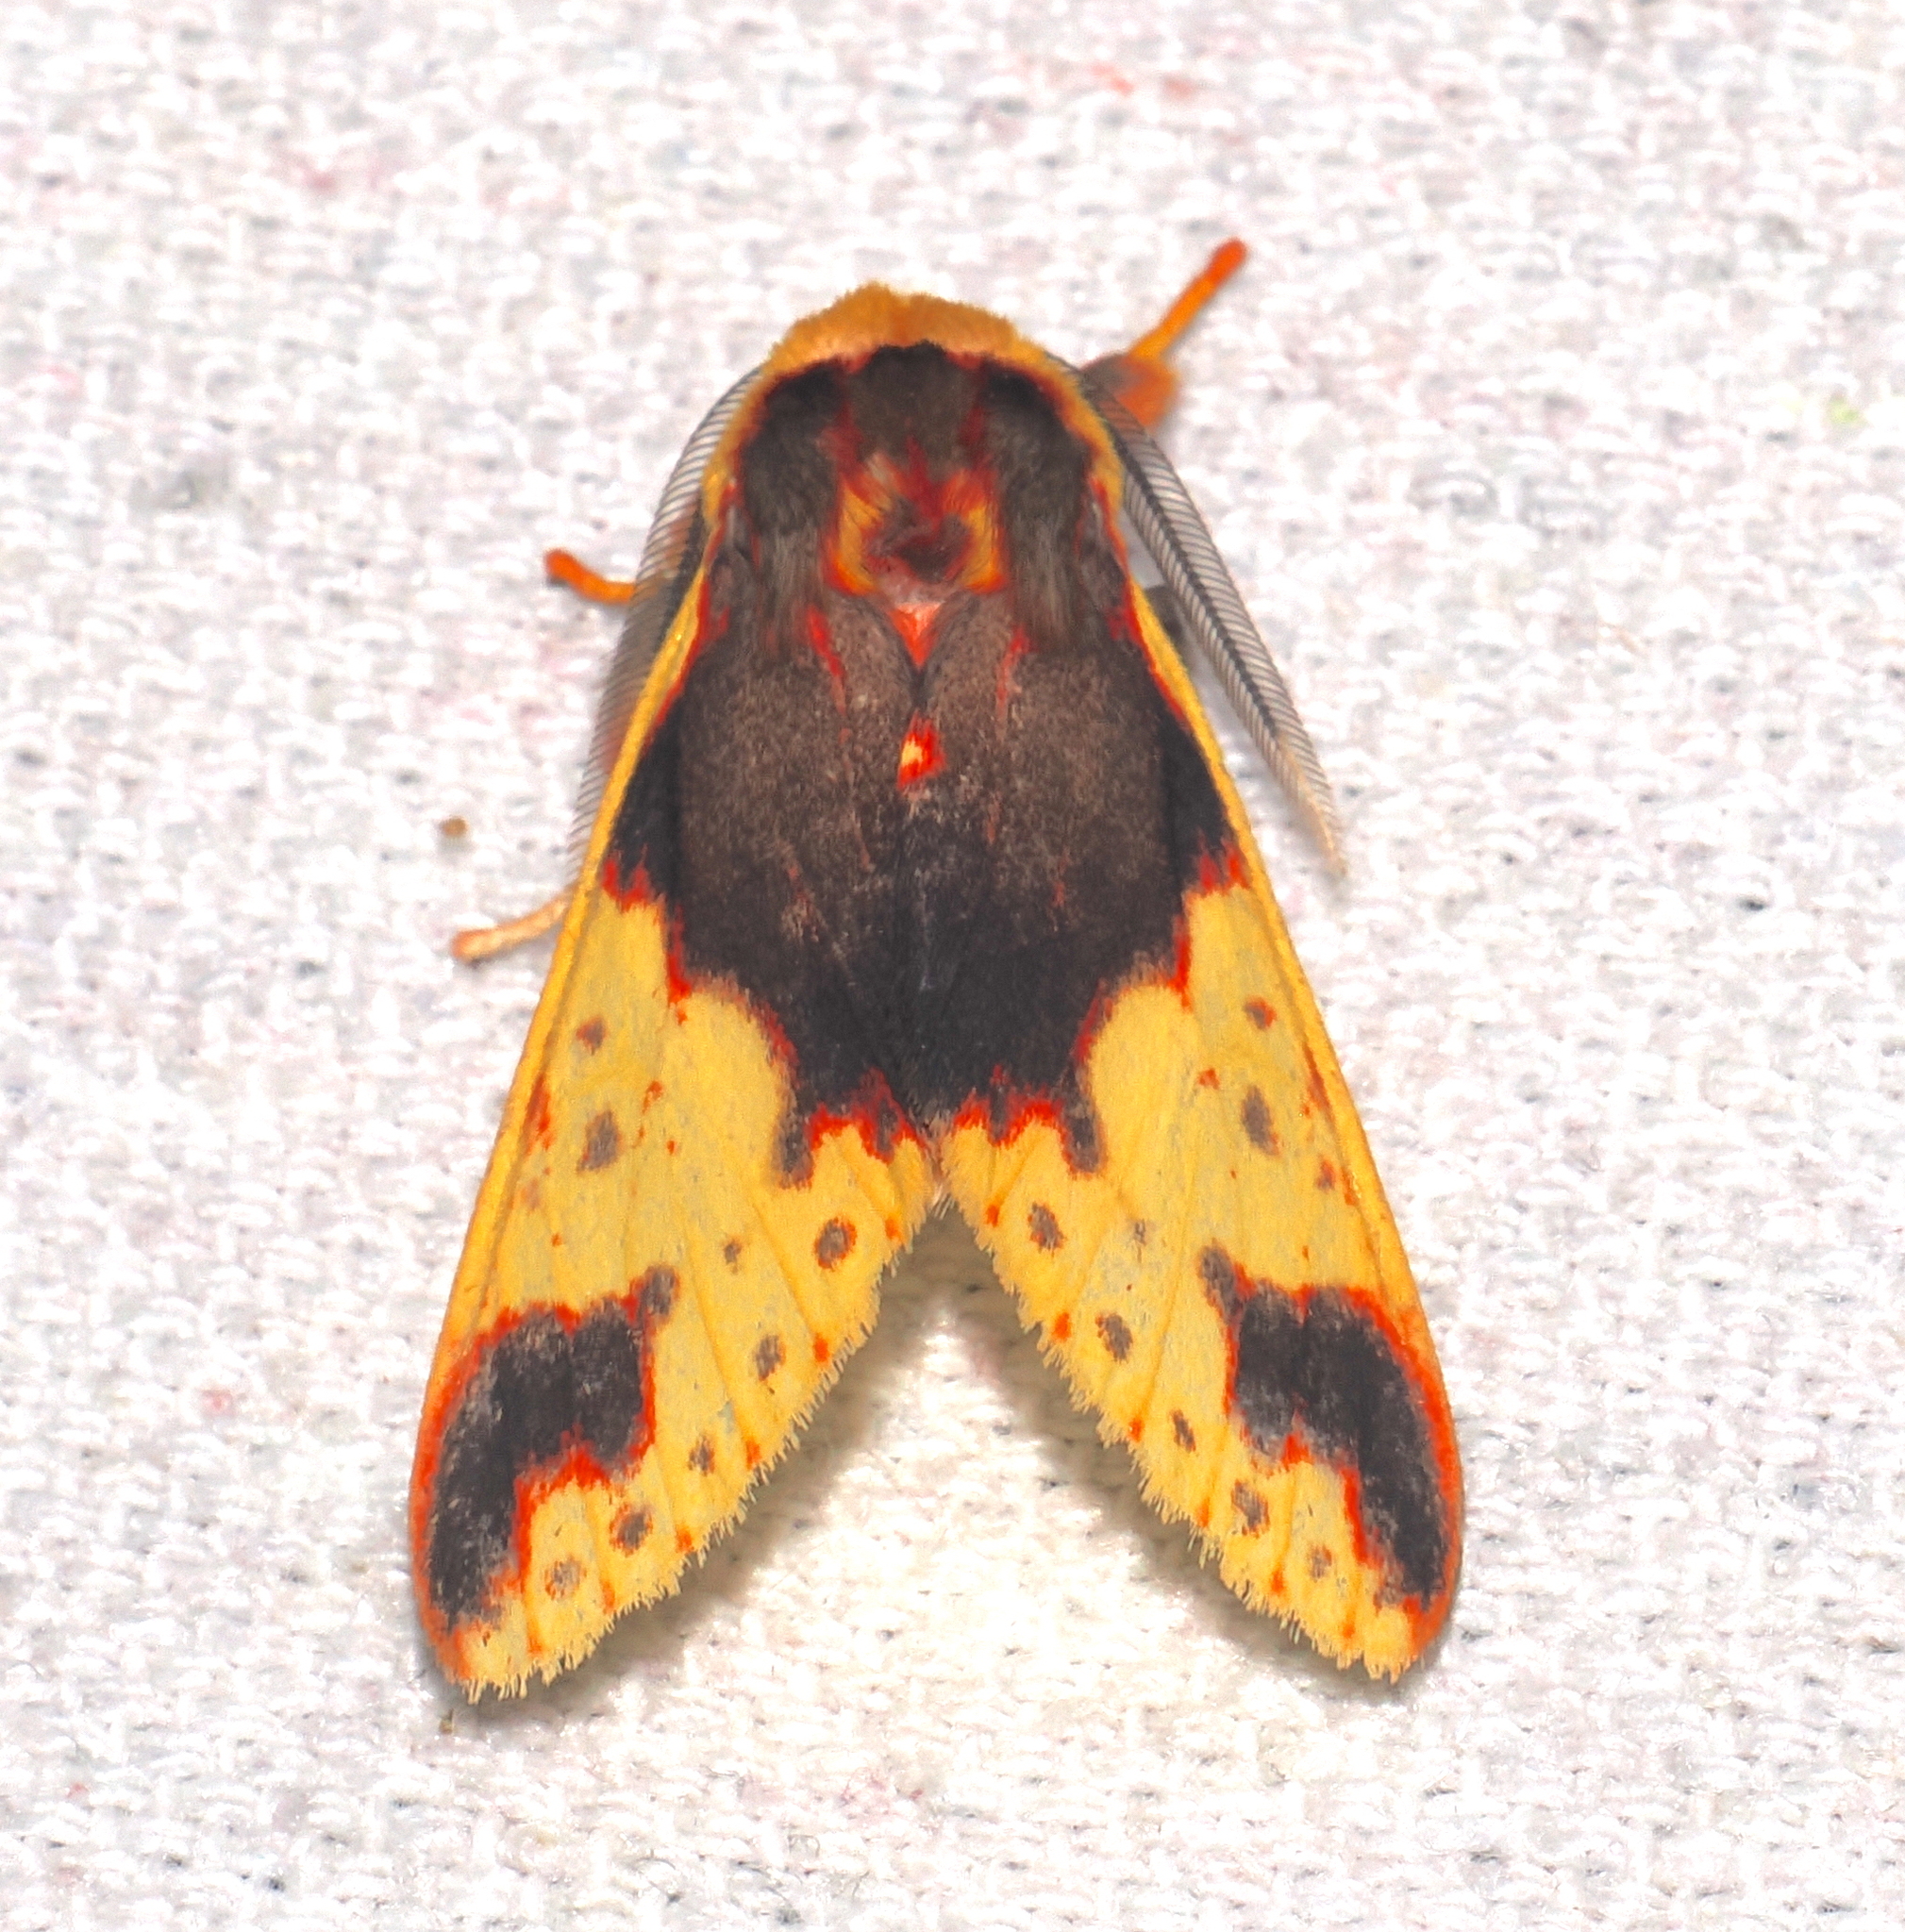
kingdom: Animalia
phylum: Arthropoda
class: Insecta
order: Lepidoptera
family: Erebidae
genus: Symphlebia
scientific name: Symphlebia palmeri
